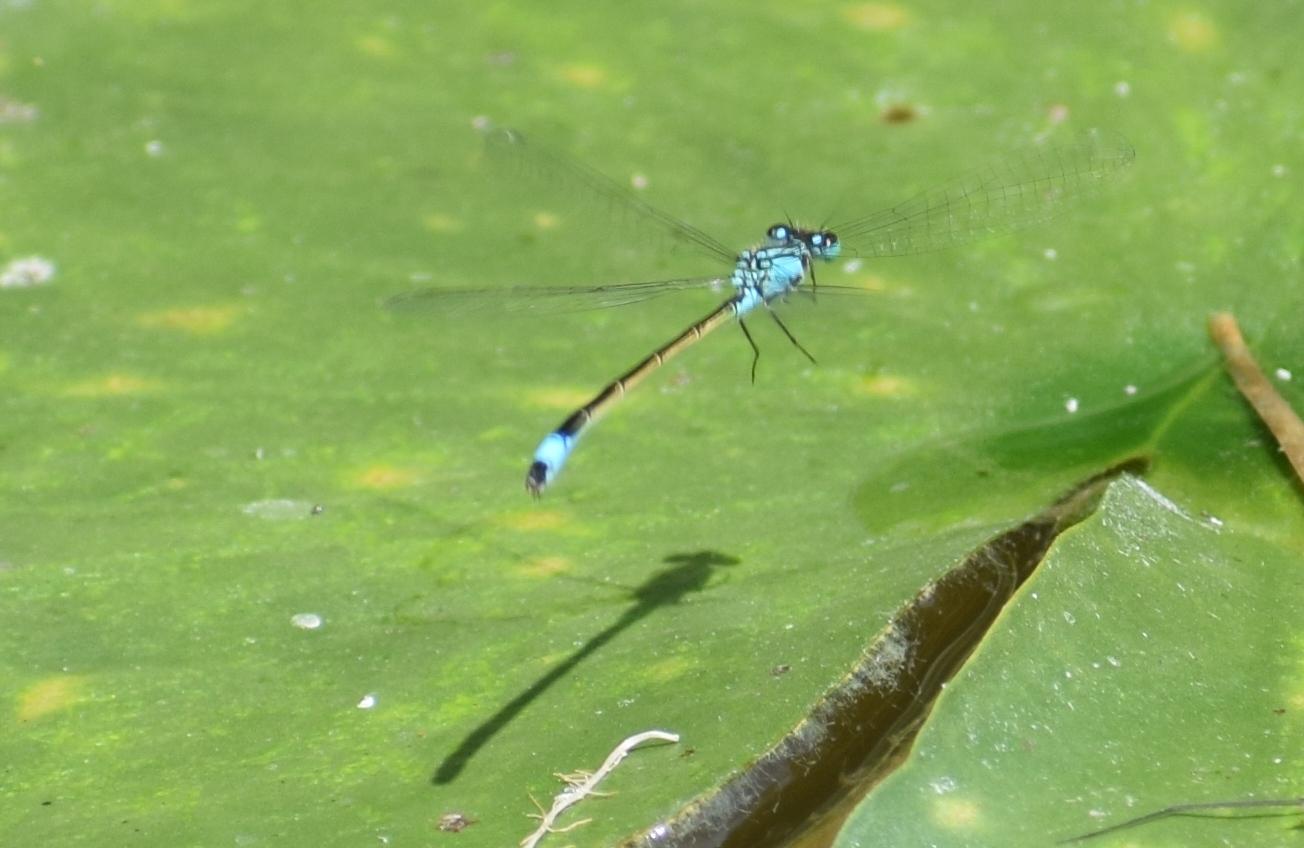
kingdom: Animalia
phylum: Arthropoda
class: Insecta
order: Odonata
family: Coenagrionidae
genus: Ischnura
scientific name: Ischnura elegans
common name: Blue-tailed damselfly
